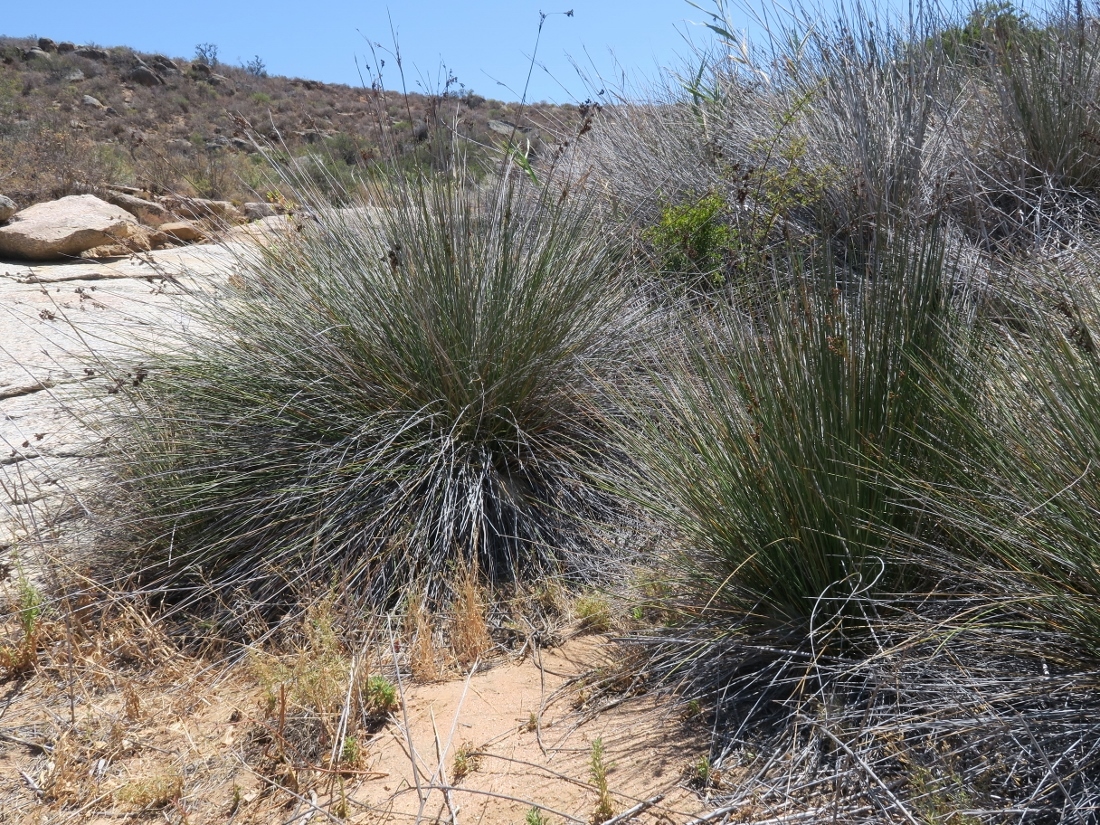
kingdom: Plantae
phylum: Tracheophyta
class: Liliopsida
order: Poales
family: Juncaceae
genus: Juncus
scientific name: Juncus acutus
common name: Sharp rush
